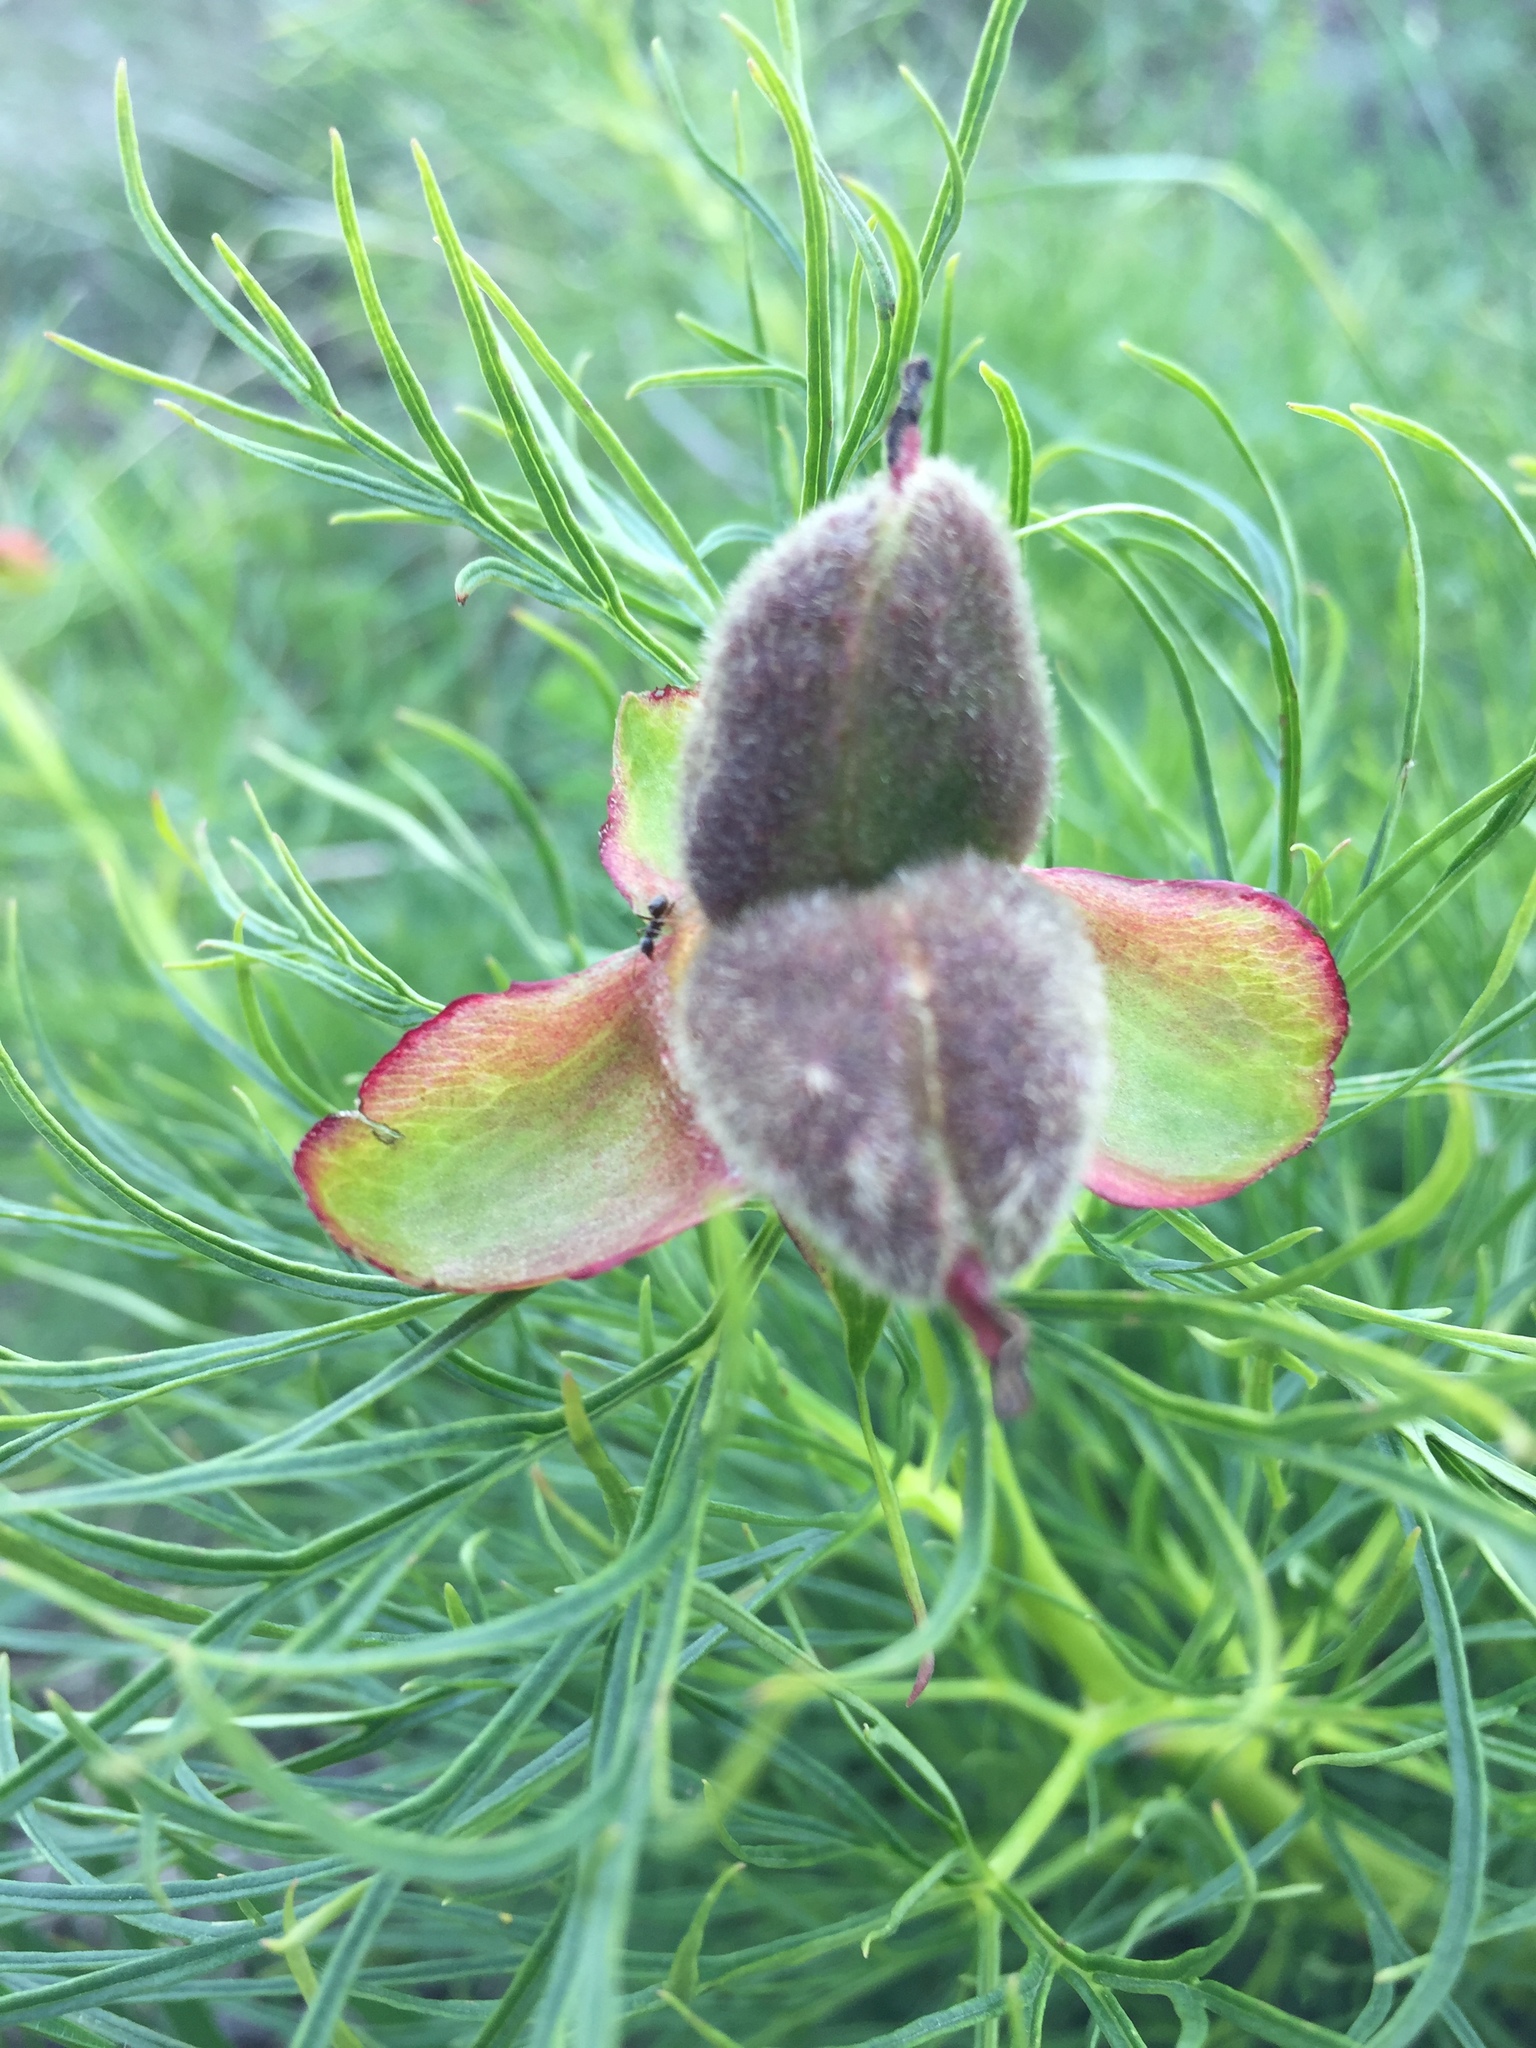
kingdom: Plantae
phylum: Tracheophyta
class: Magnoliopsida
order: Saxifragales
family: Paeoniaceae
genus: Paeonia
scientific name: Paeonia tenuifolia
